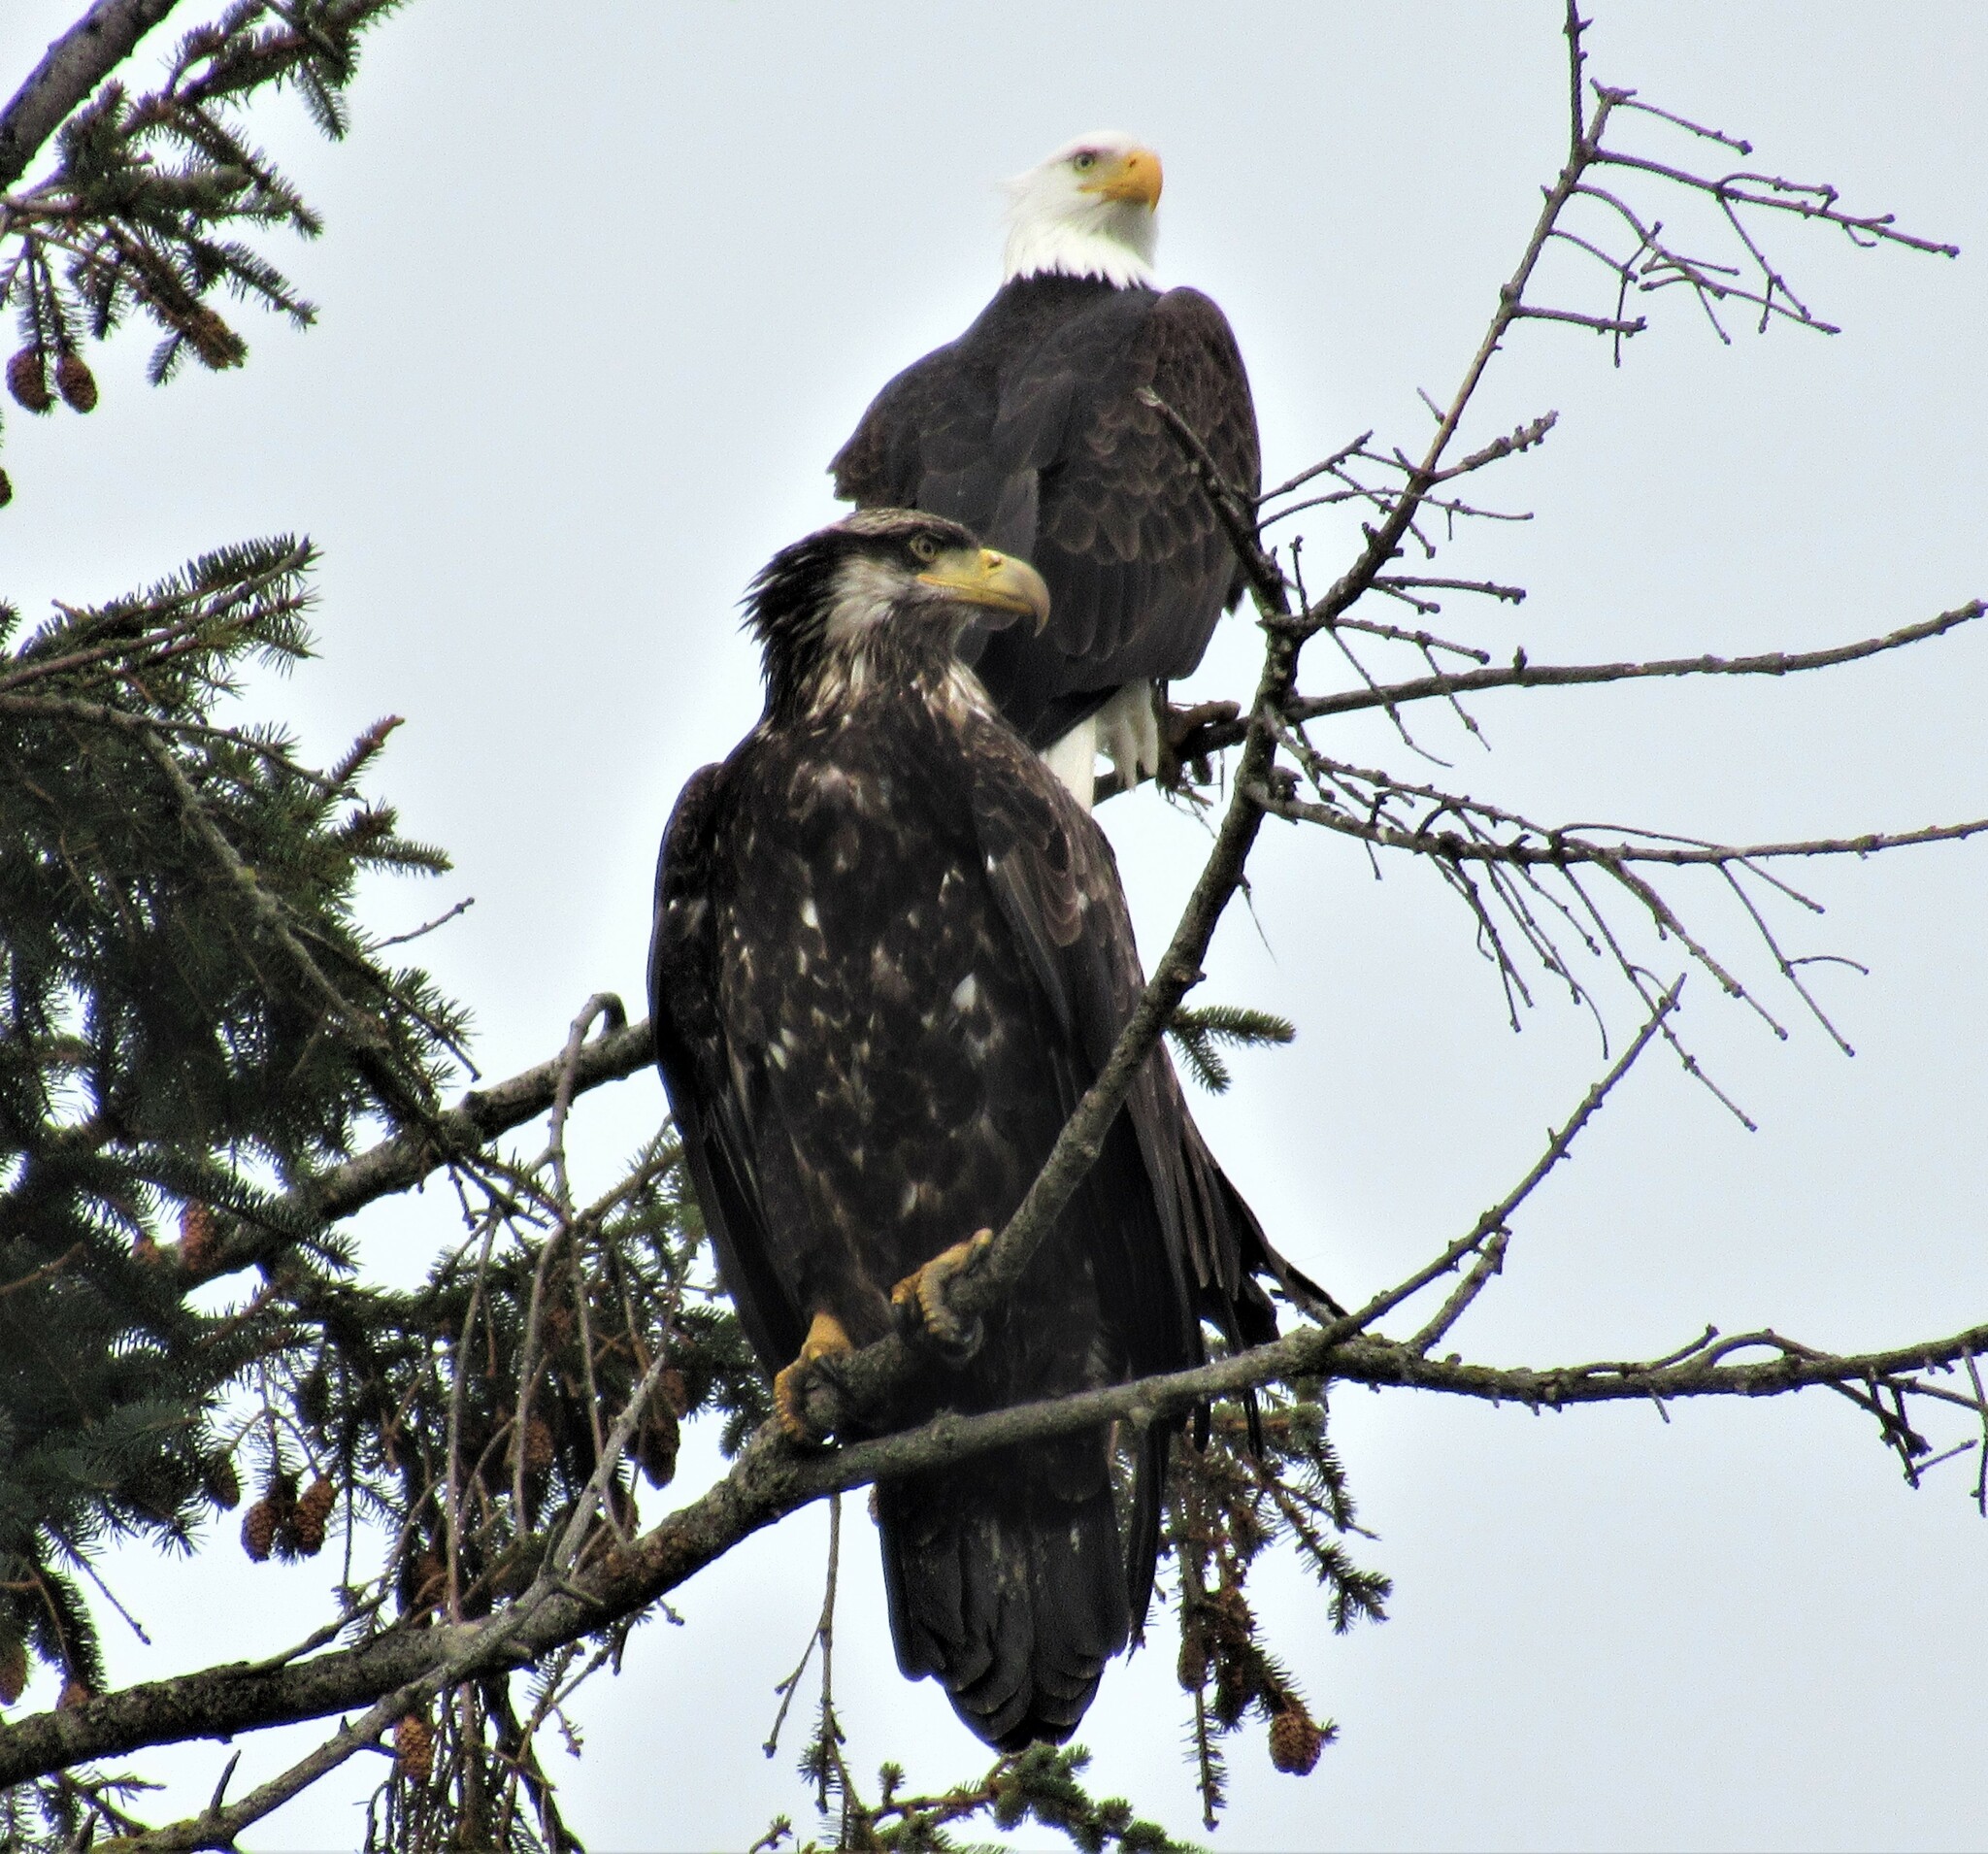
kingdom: Animalia
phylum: Chordata
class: Aves
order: Accipitriformes
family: Accipitridae
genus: Haliaeetus
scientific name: Haliaeetus leucocephalus
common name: Bald eagle
